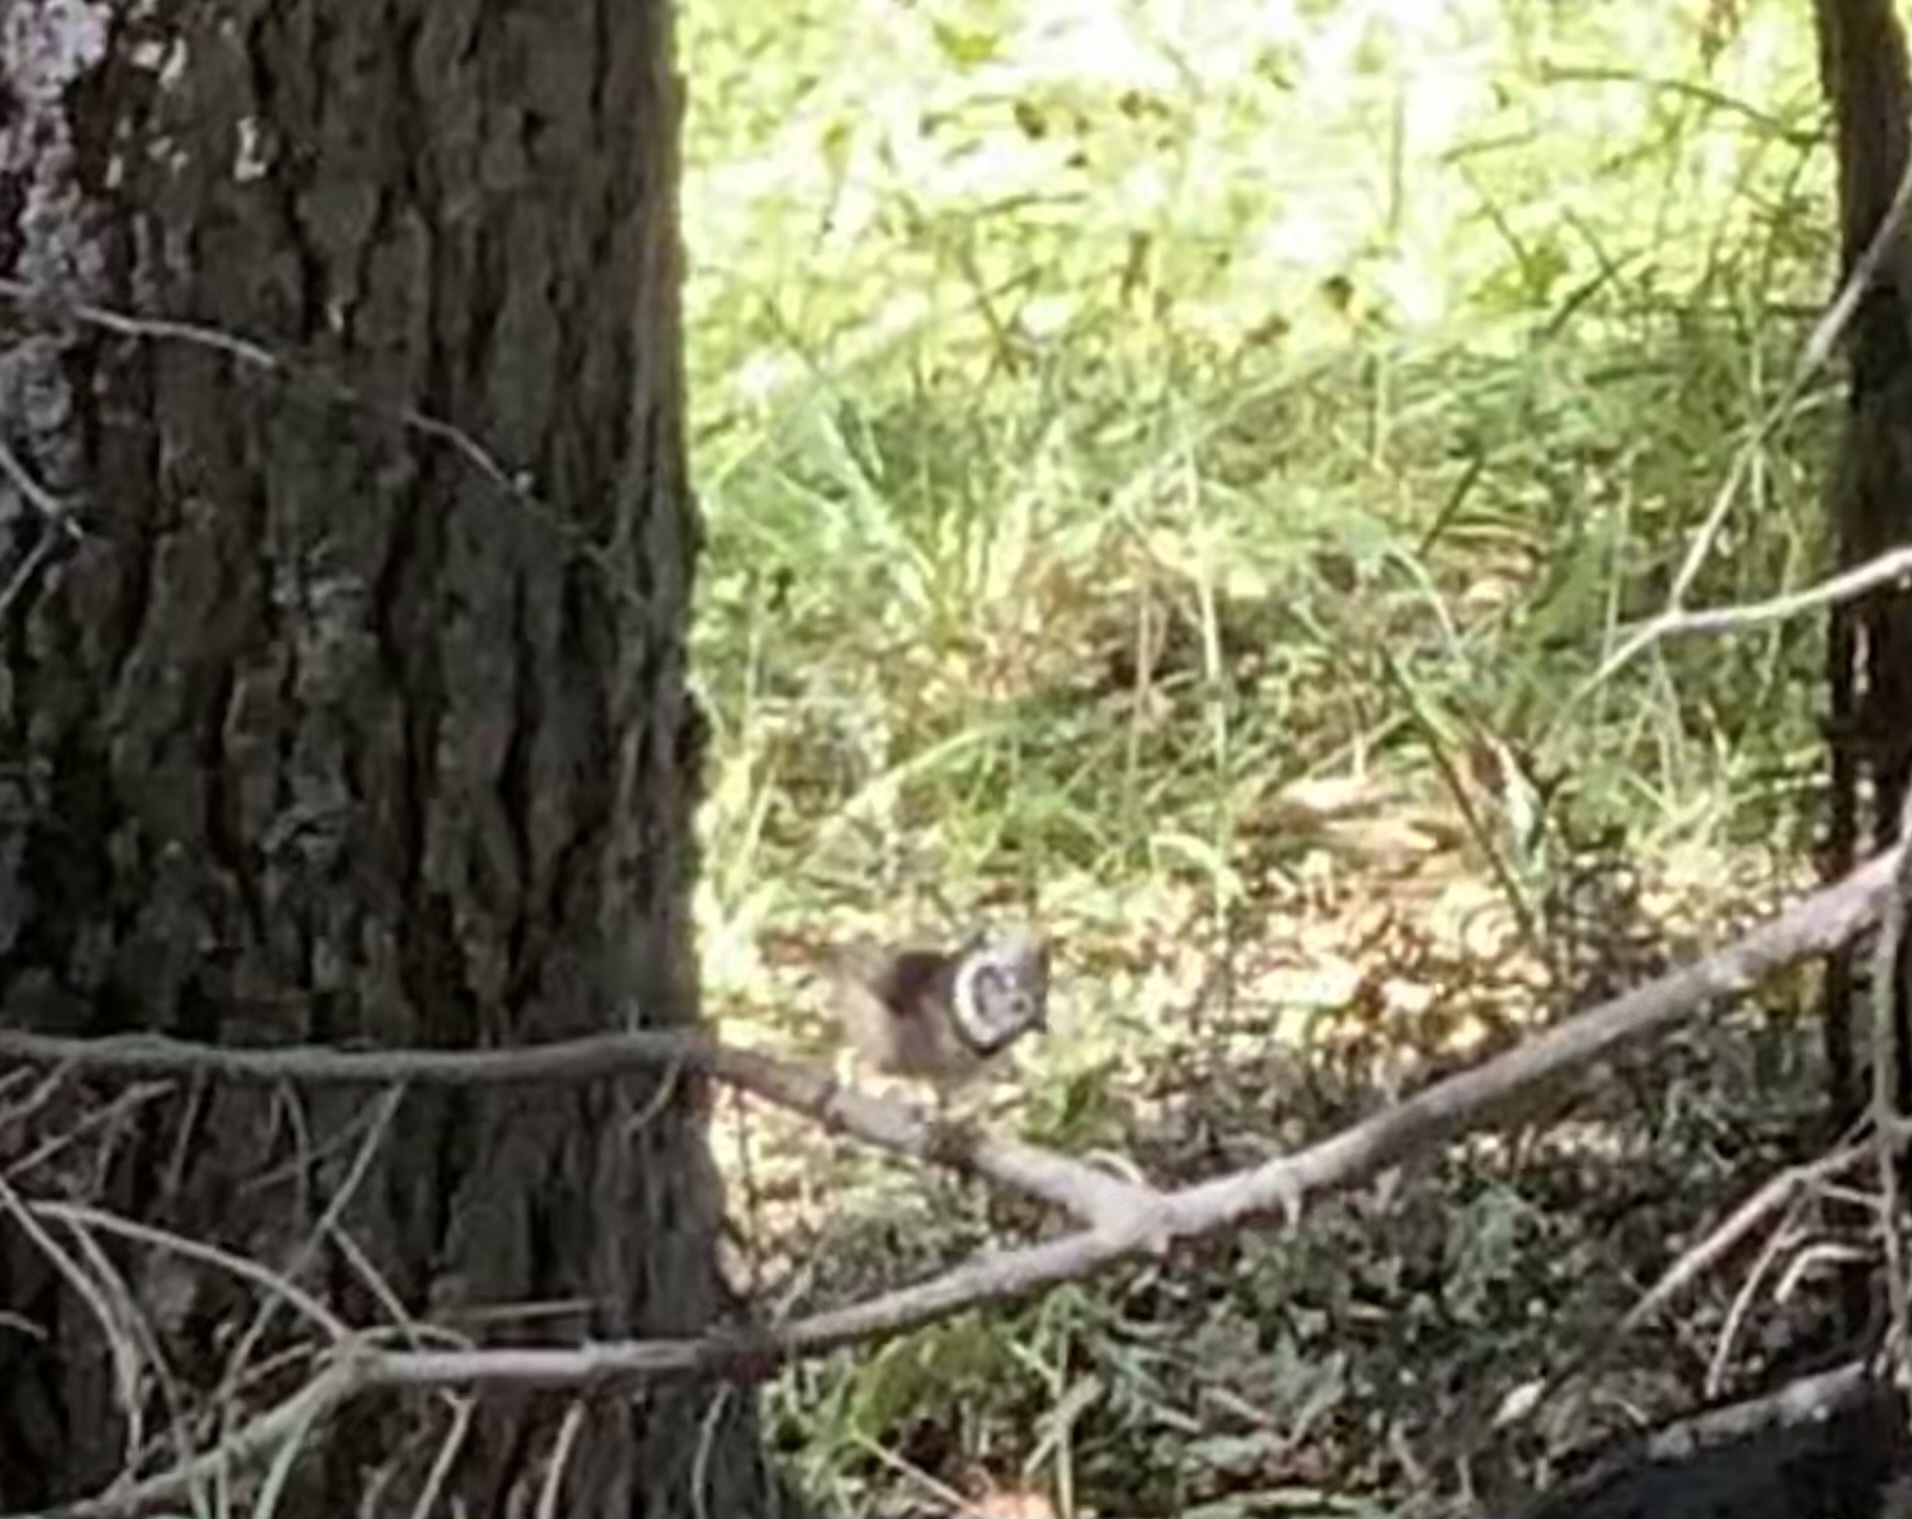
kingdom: Animalia
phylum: Chordata
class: Aves
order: Passeriformes
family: Paridae
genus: Lophophanes
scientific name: Lophophanes cristatus
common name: European crested tit
